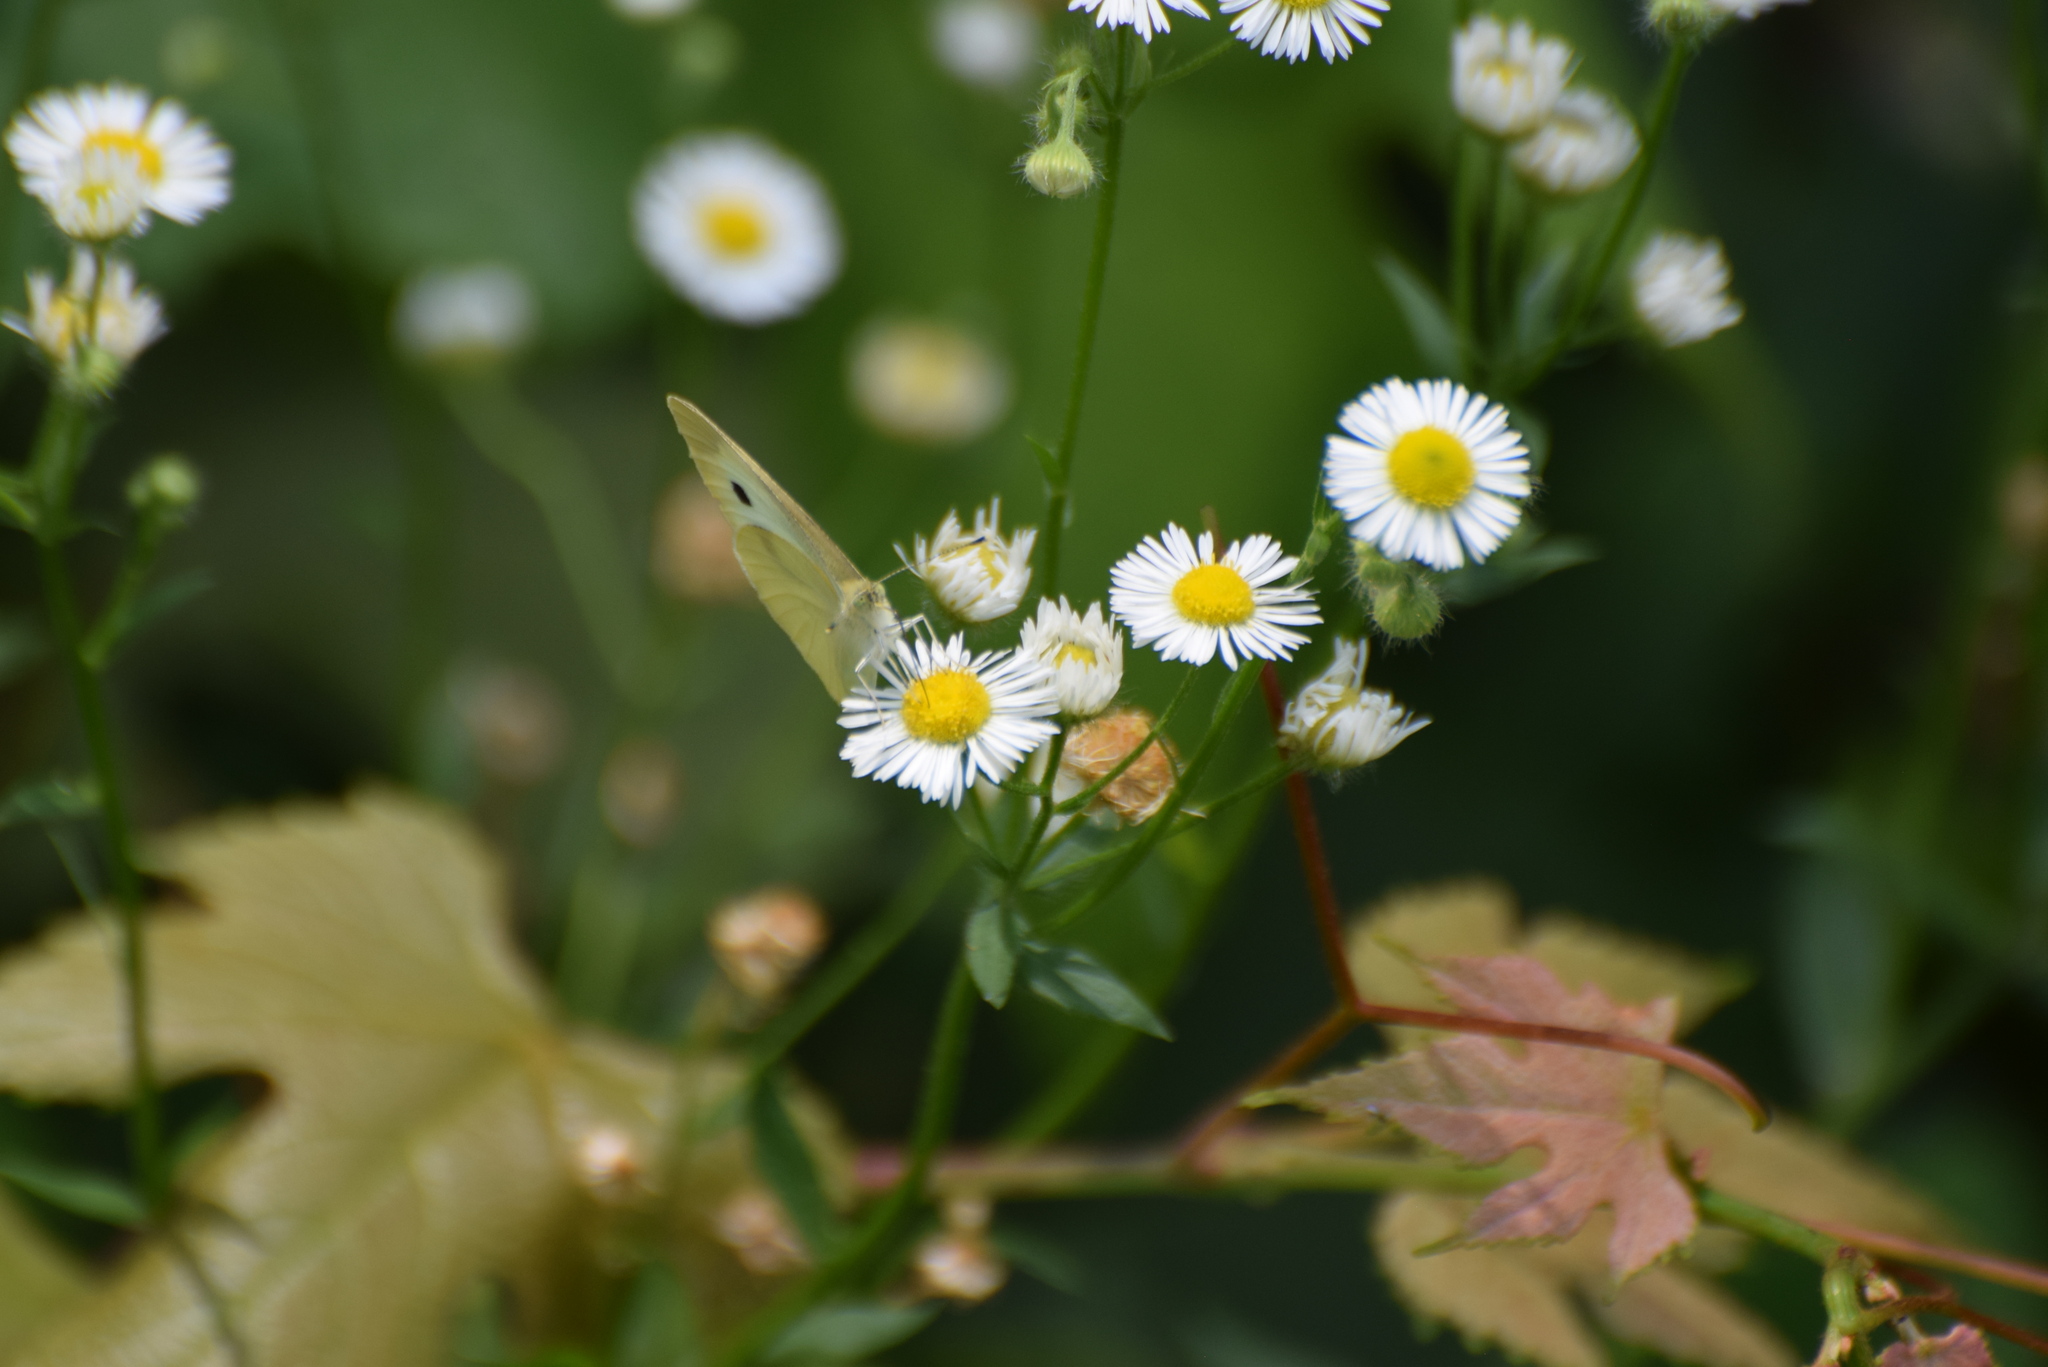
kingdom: Animalia
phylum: Arthropoda
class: Insecta
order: Lepidoptera
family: Pieridae
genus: Pieris
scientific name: Pieris rapae
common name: Small white
